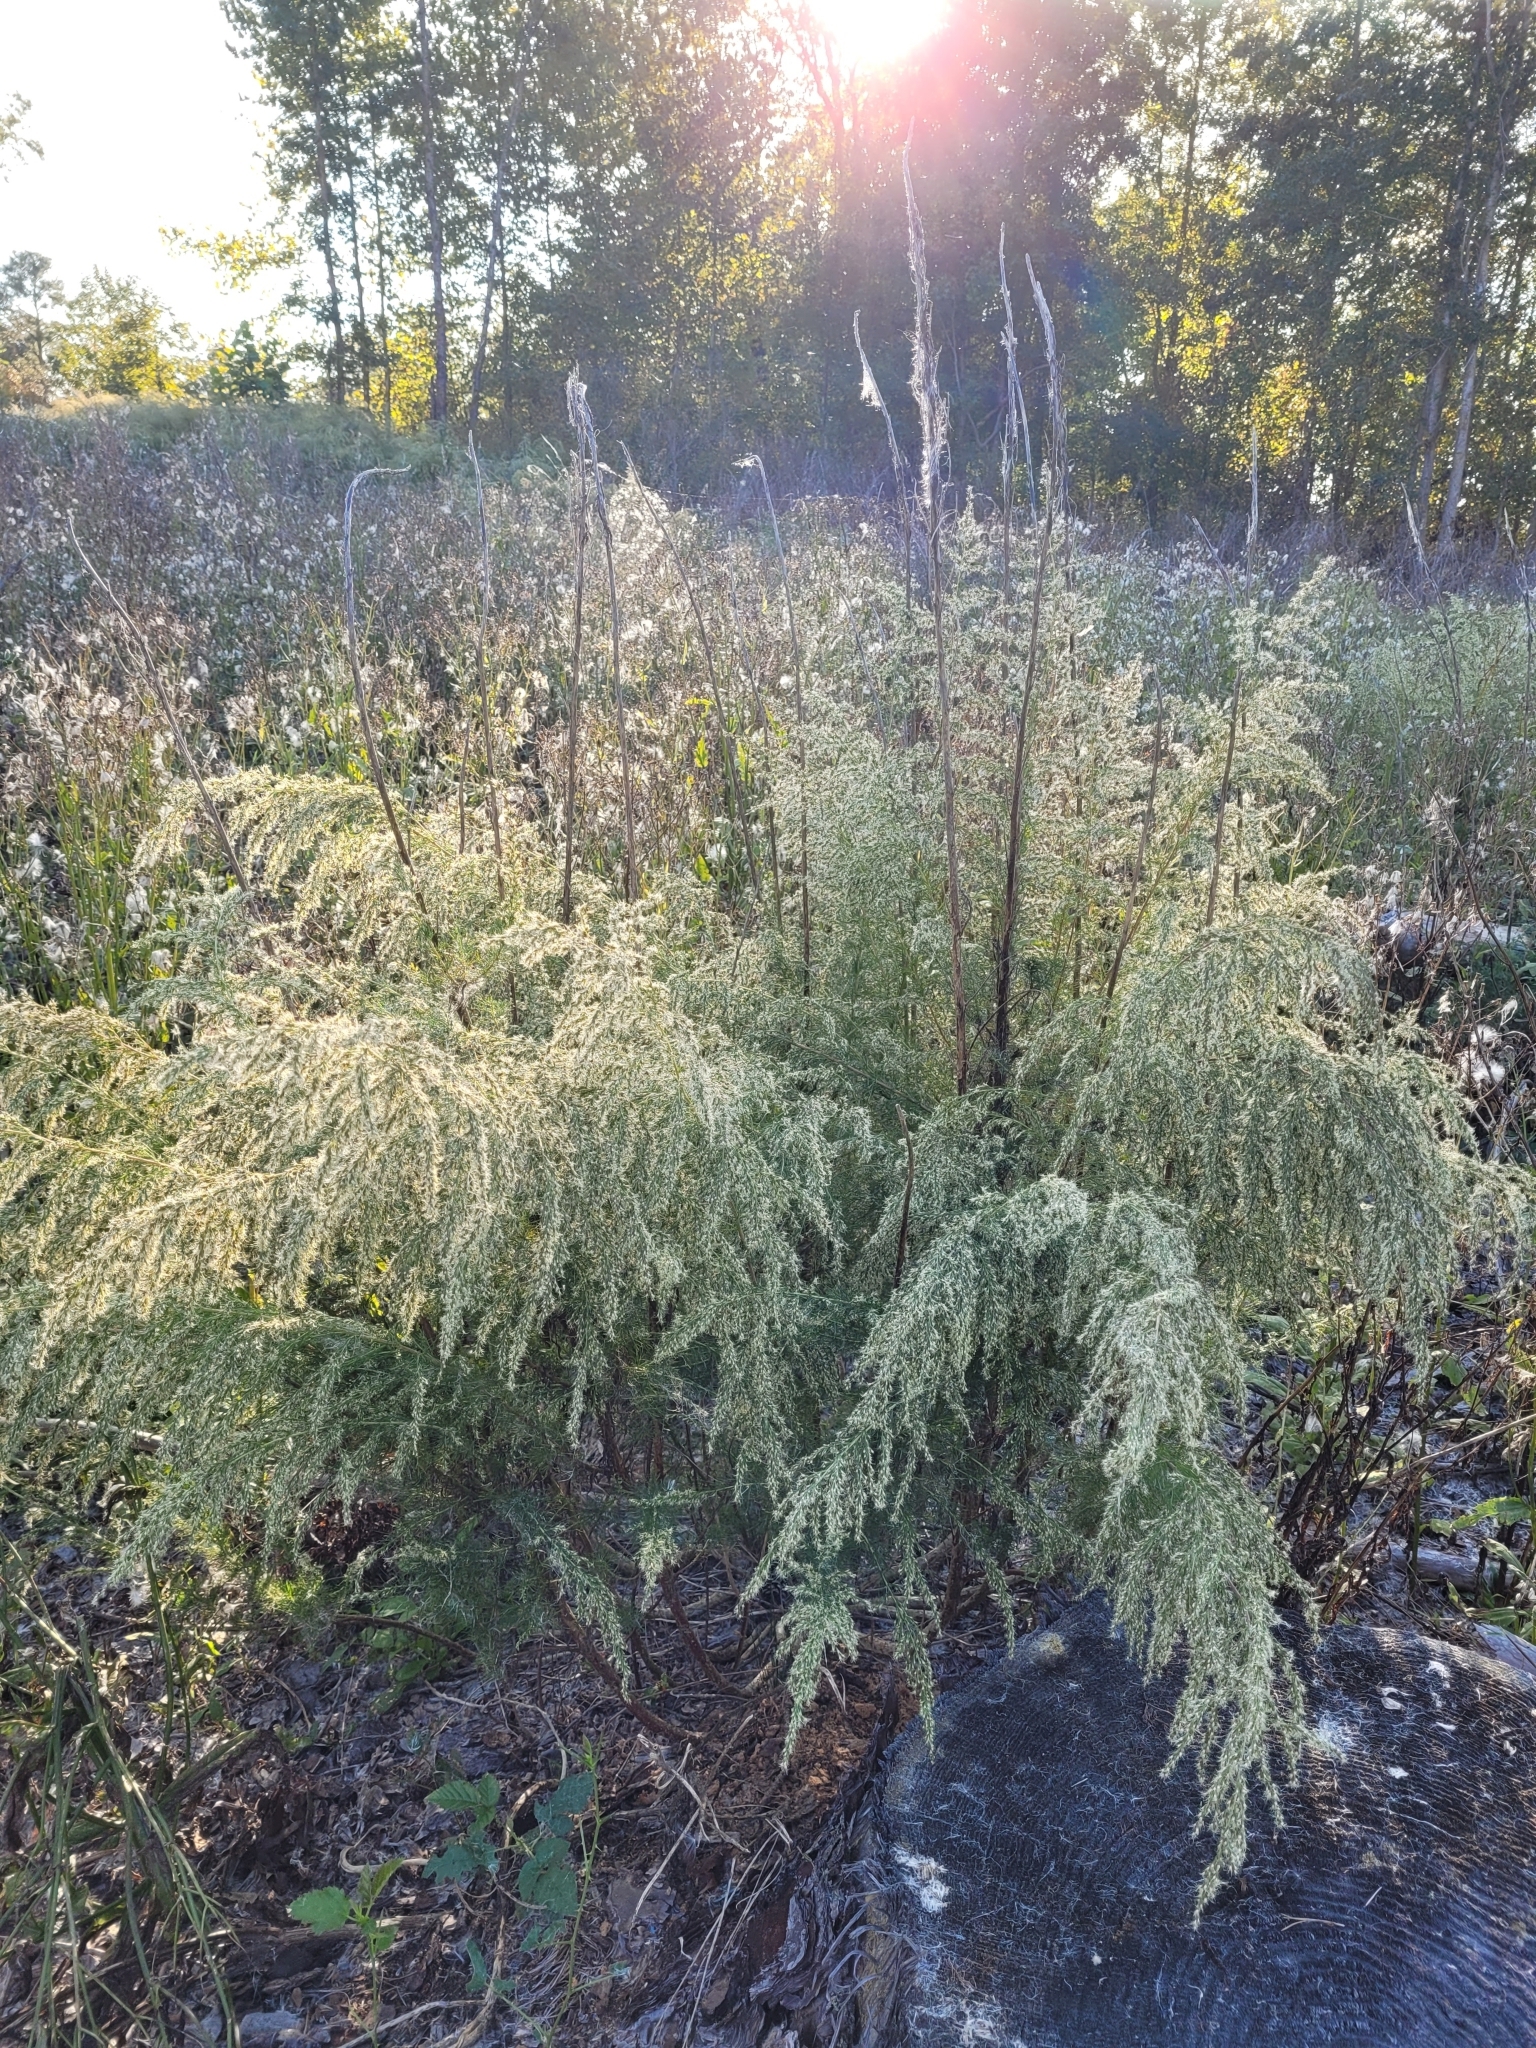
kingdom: Plantae
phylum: Tracheophyta
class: Magnoliopsida
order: Asterales
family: Asteraceae
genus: Eupatorium
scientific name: Eupatorium capillifolium
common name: Dog-fennel
